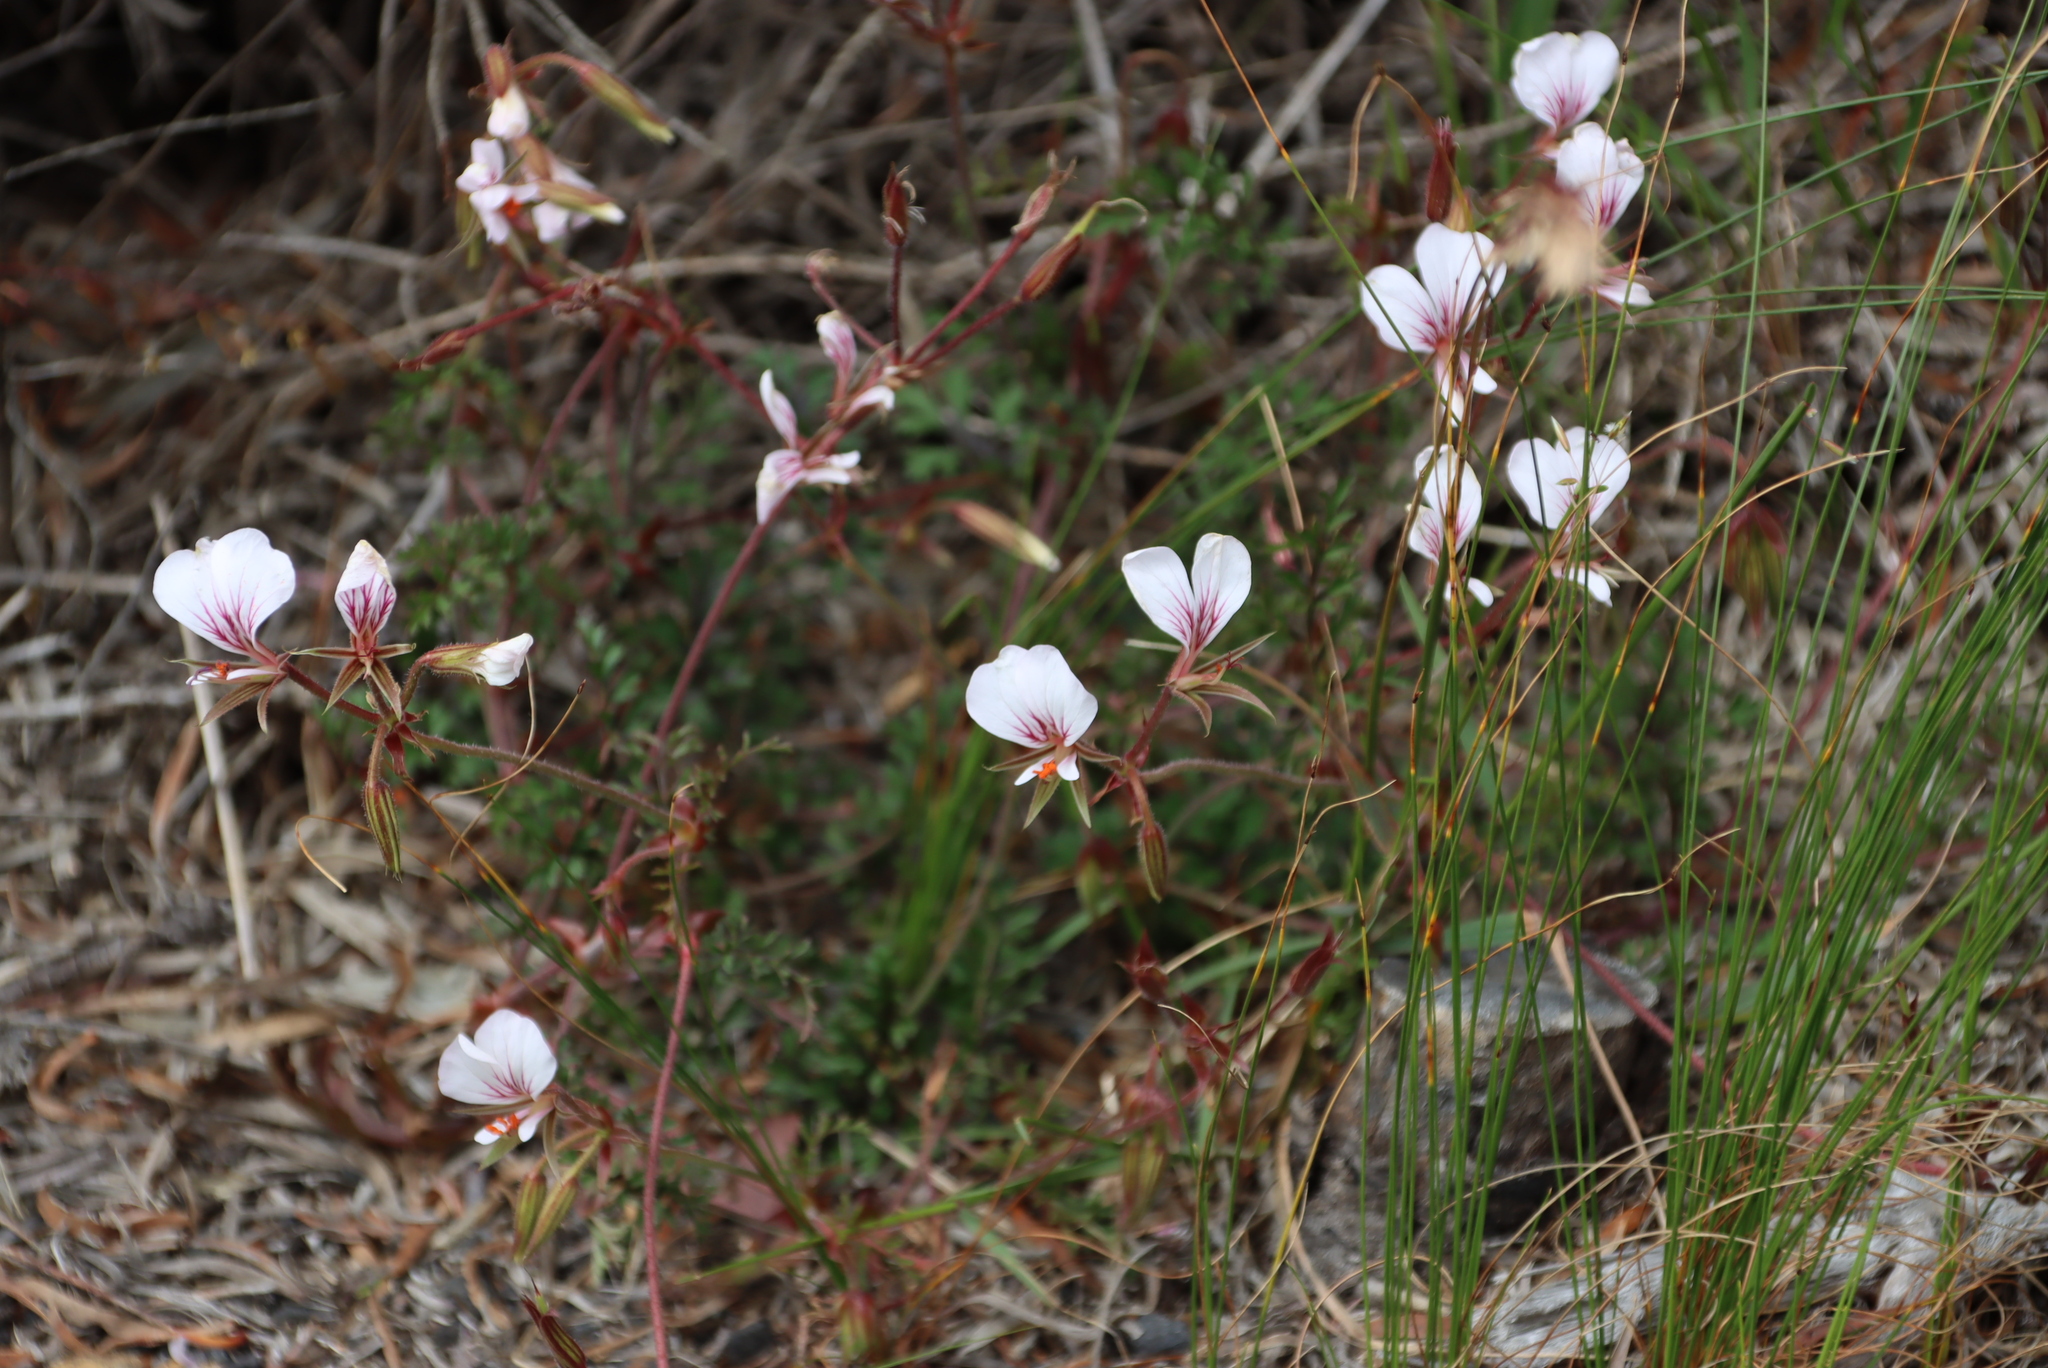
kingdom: Plantae
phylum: Tracheophyta
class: Magnoliopsida
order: Geraniales
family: Geraniaceae
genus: Pelargonium
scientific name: Pelargonium myrrhifolium
